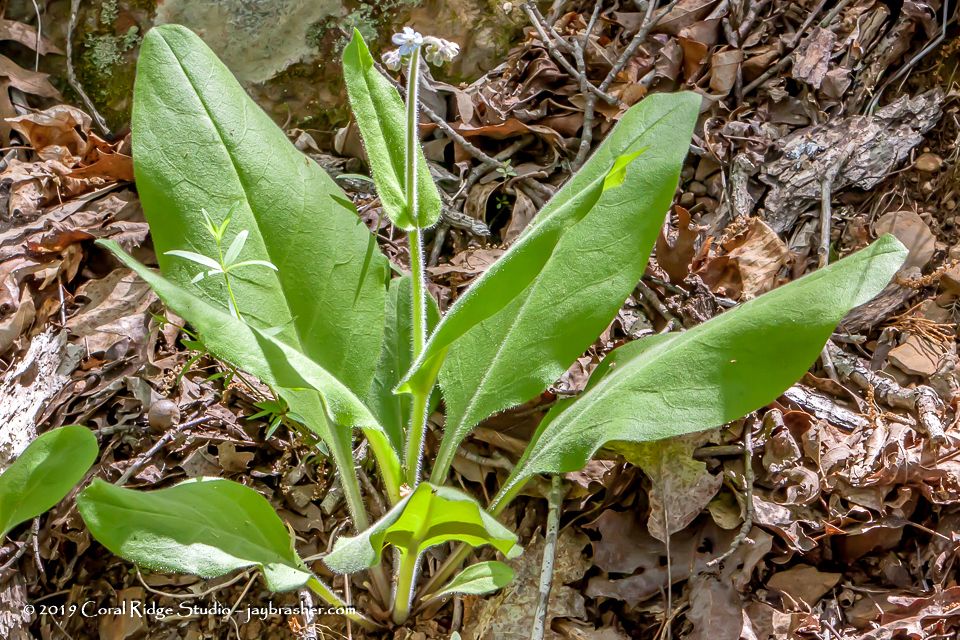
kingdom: Plantae
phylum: Tracheophyta
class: Magnoliopsida
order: Boraginales
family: Boraginaceae
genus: Andersonglossum
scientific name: Andersonglossum virginianum
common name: Wild comfrey
